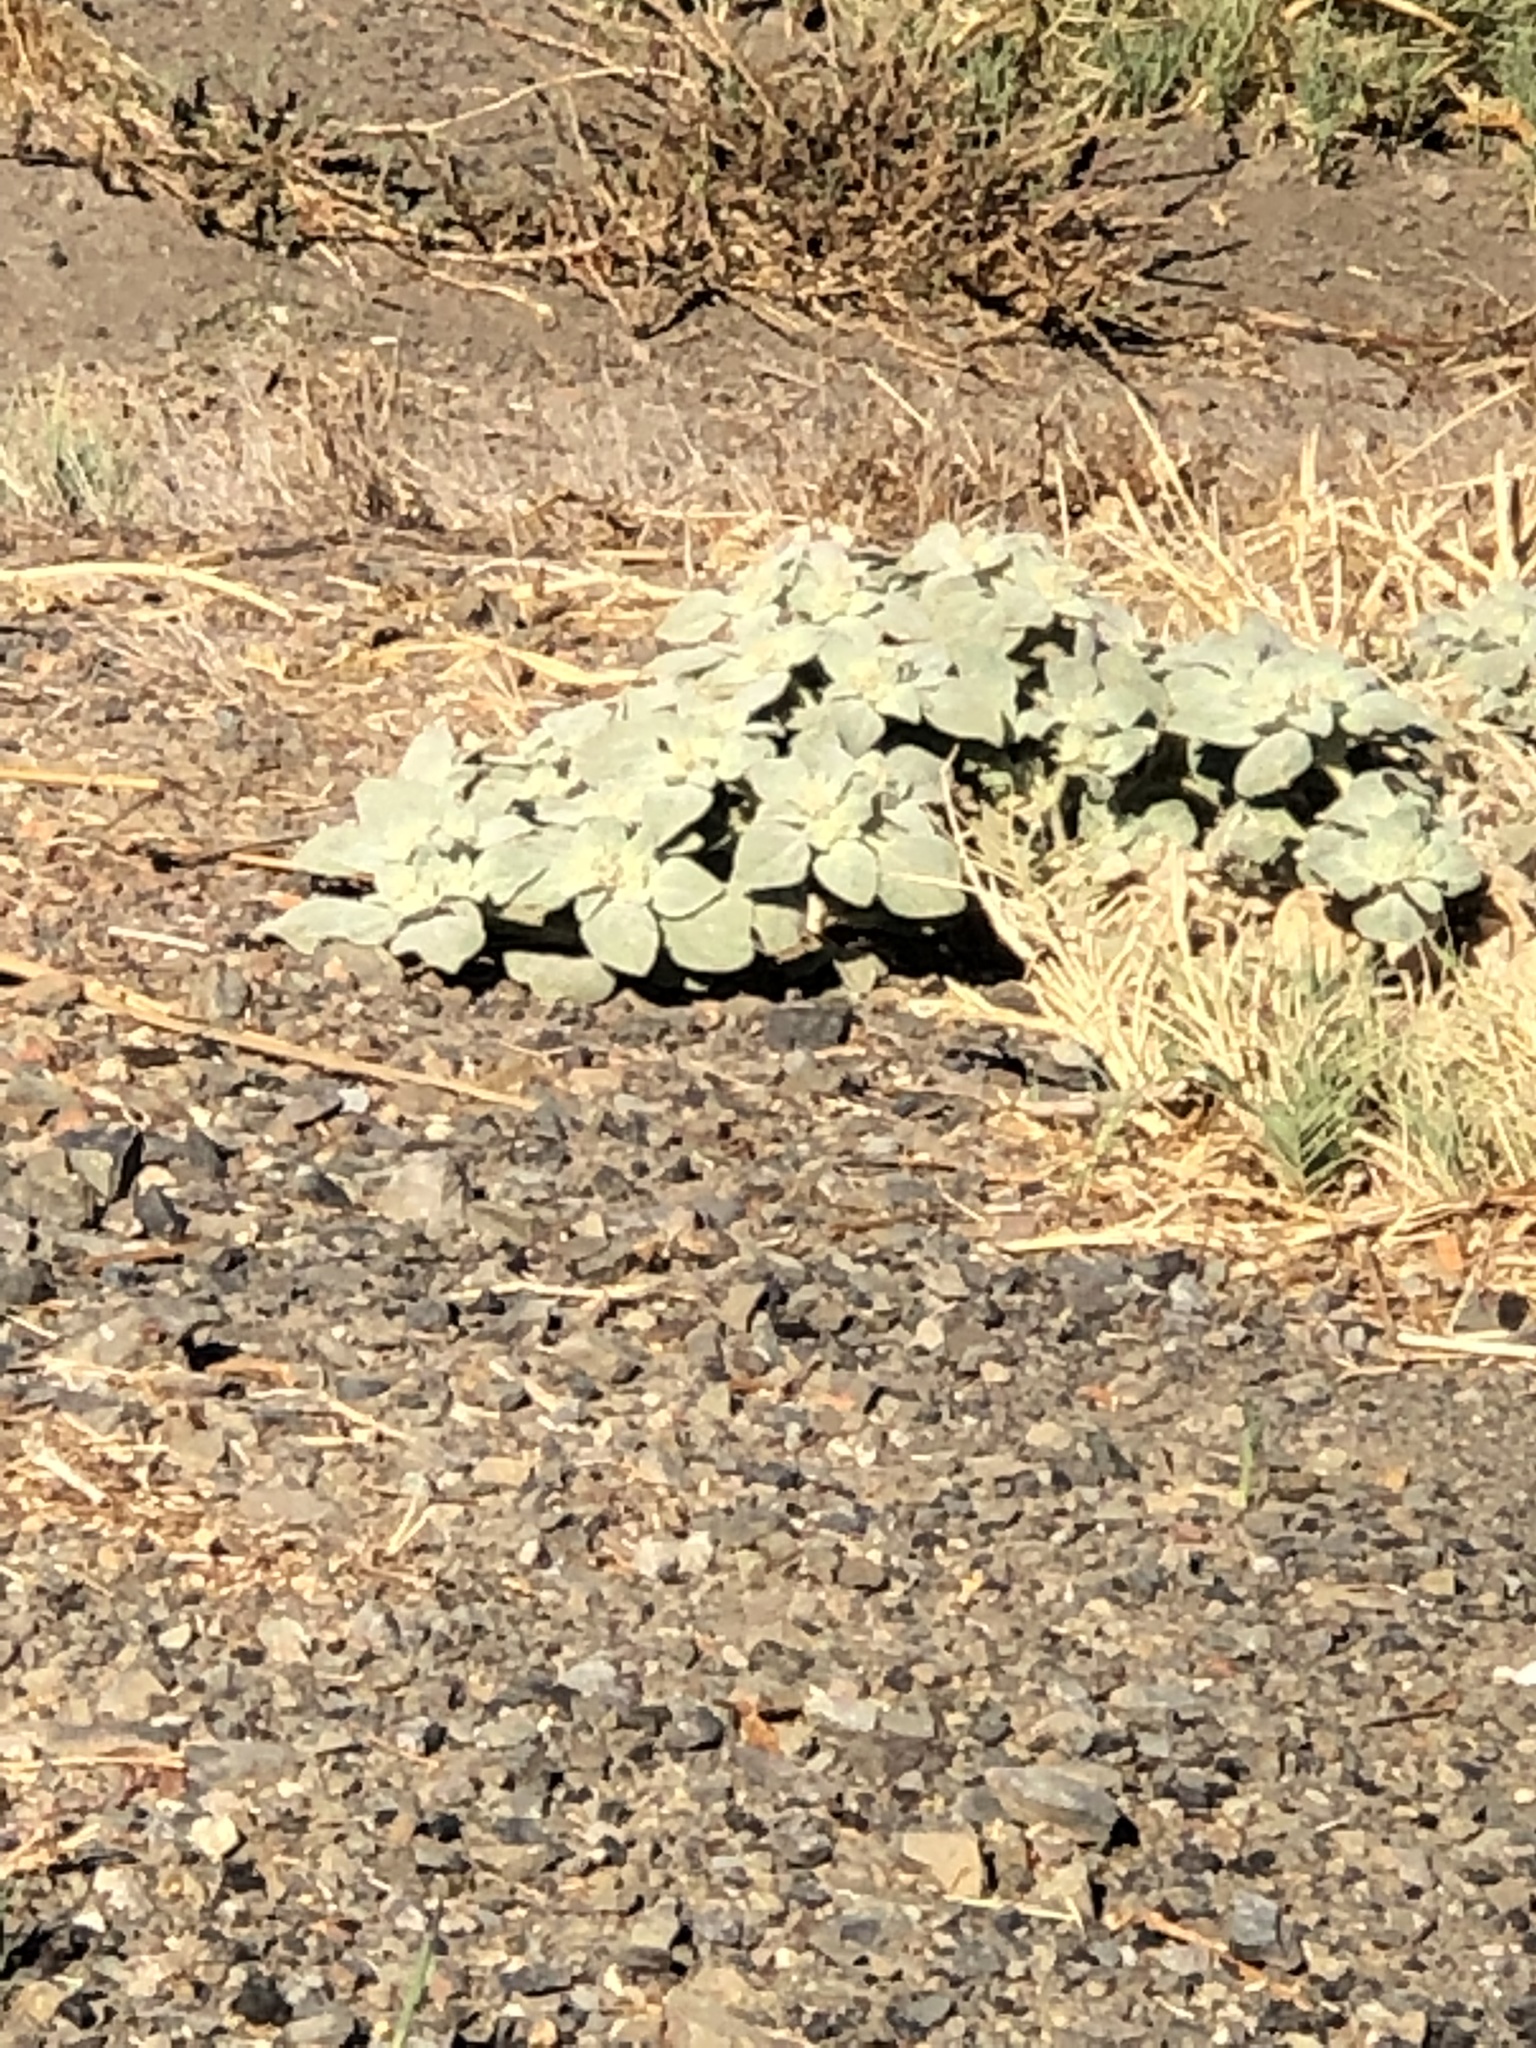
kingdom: Plantae
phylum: Tracheophyta
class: Magnoliopsida
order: Malpighiales
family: Euphorbiaceae
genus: Croton
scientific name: Croton setiger
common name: Dove weed
